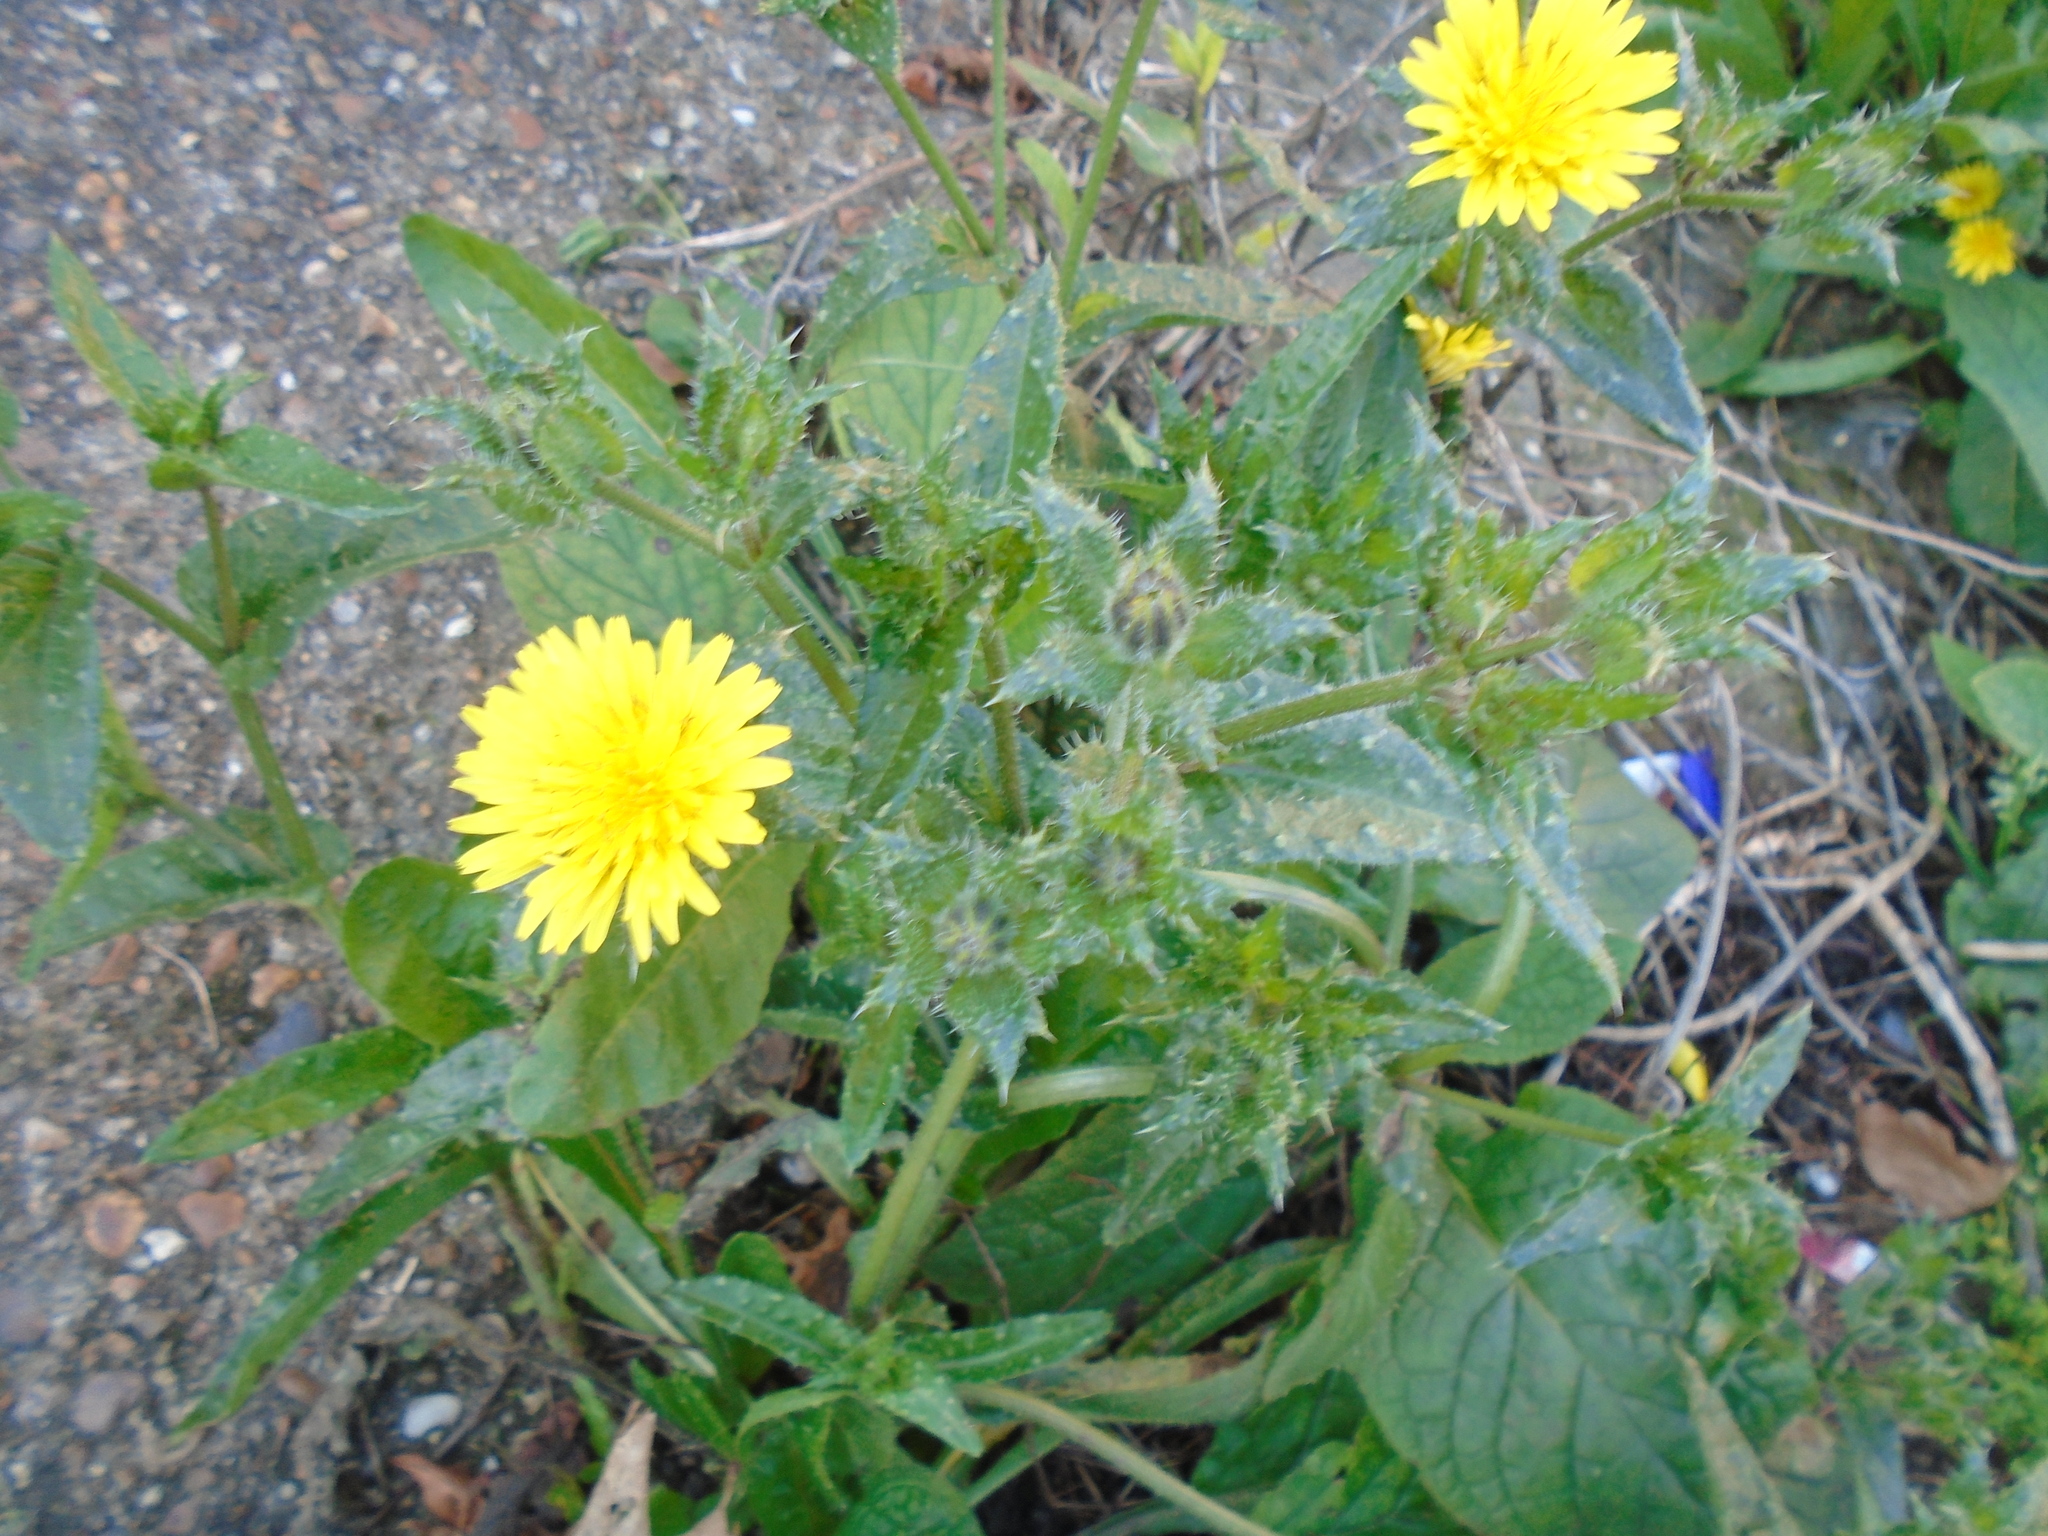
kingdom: Plantae
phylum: Tracheophyta
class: Magnoliopsida
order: Asterales
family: Asteraceae
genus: Helminthotheca
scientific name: Helminthotheca echioides
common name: Ox-tongue
